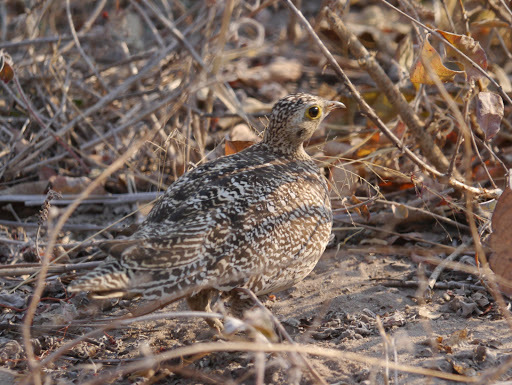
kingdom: Animalia
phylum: Chordata
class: Aves
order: Pteroclidiformes
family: Pteroclididae
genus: Pterocles
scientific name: Pterocles bicinctus
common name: Double-banded sandgrouse
